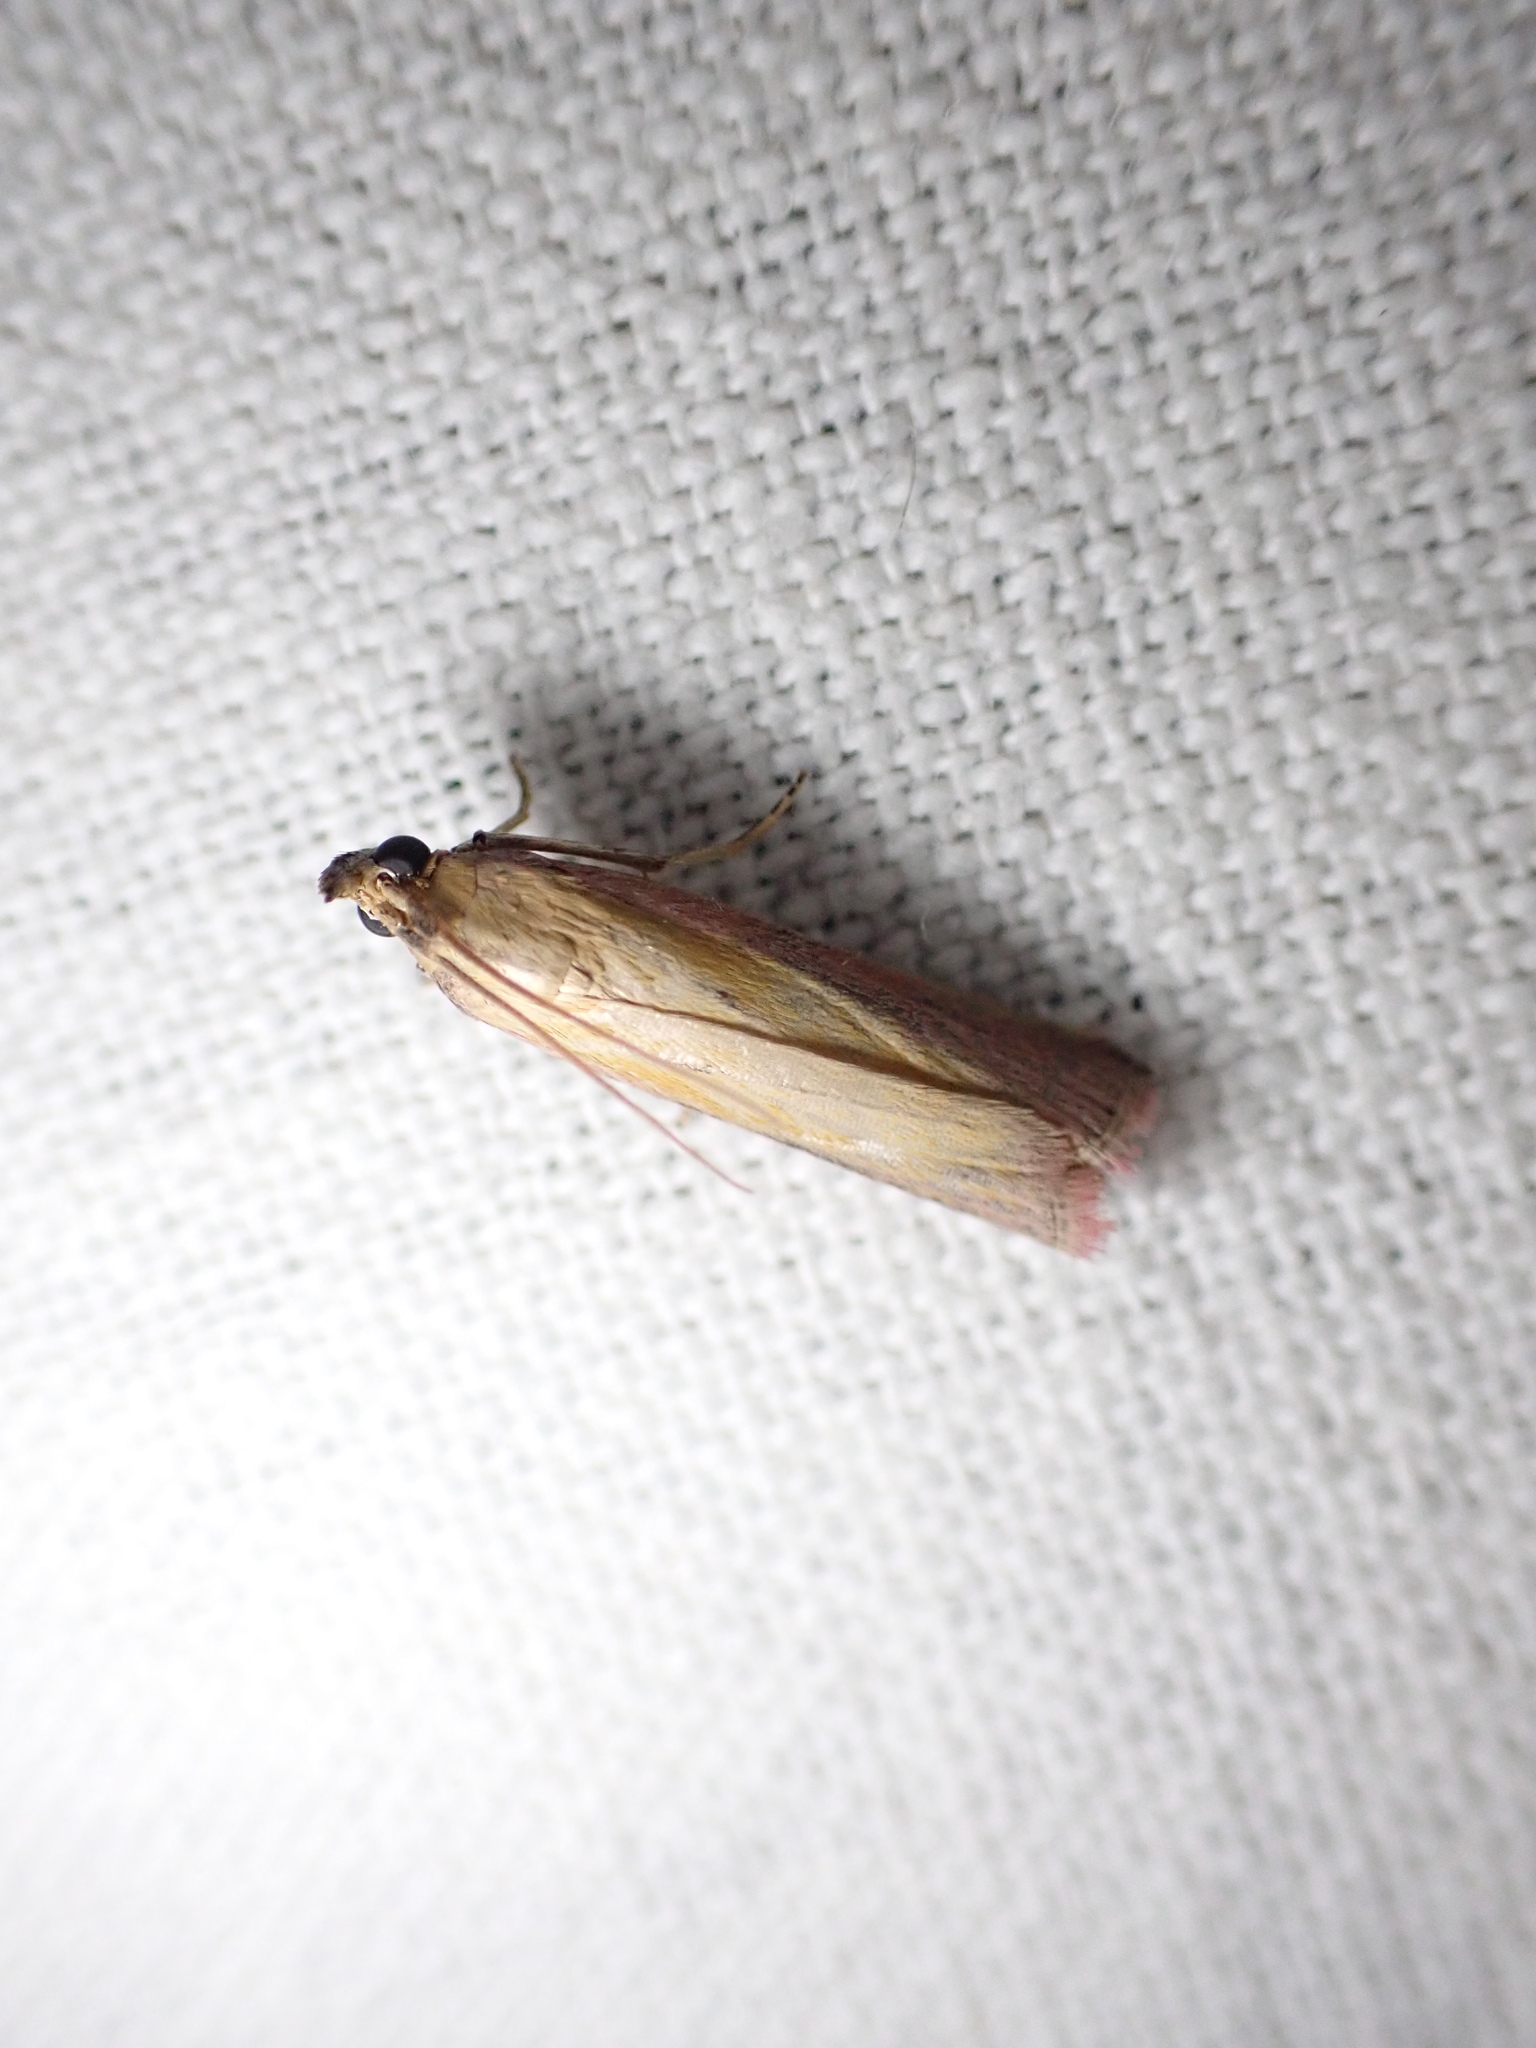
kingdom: Animalia
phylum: Arthropoda
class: Insecta
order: Lepidoptera
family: Pyralidae
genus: Oncocera
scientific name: Oncocera semirubella
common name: Rosy-striped knot-horn
